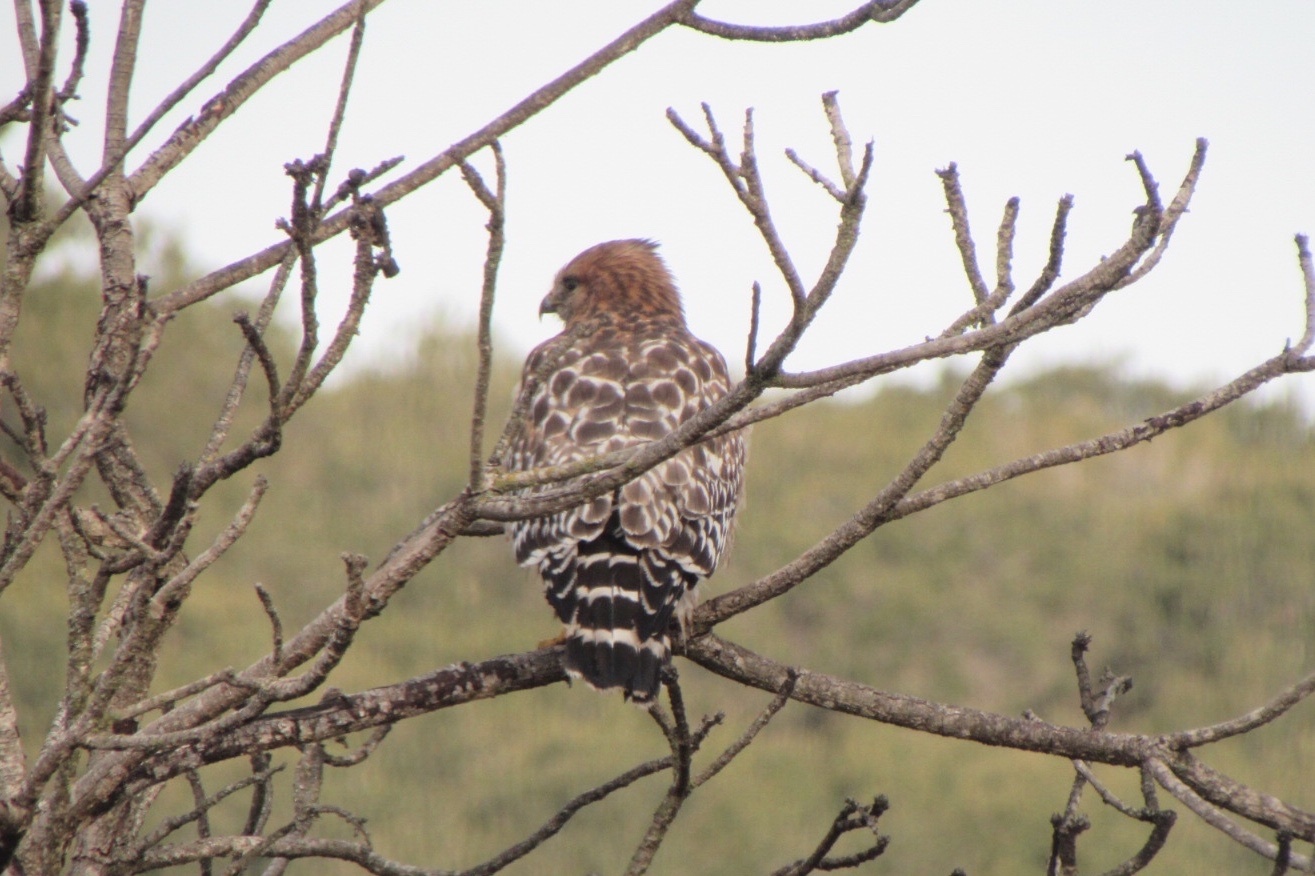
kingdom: Animalia
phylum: Chordata
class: Aves
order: Accipitriformes
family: Accipitridae
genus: Buteo
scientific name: Buteo lineatus
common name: Red-shouldered hawk
